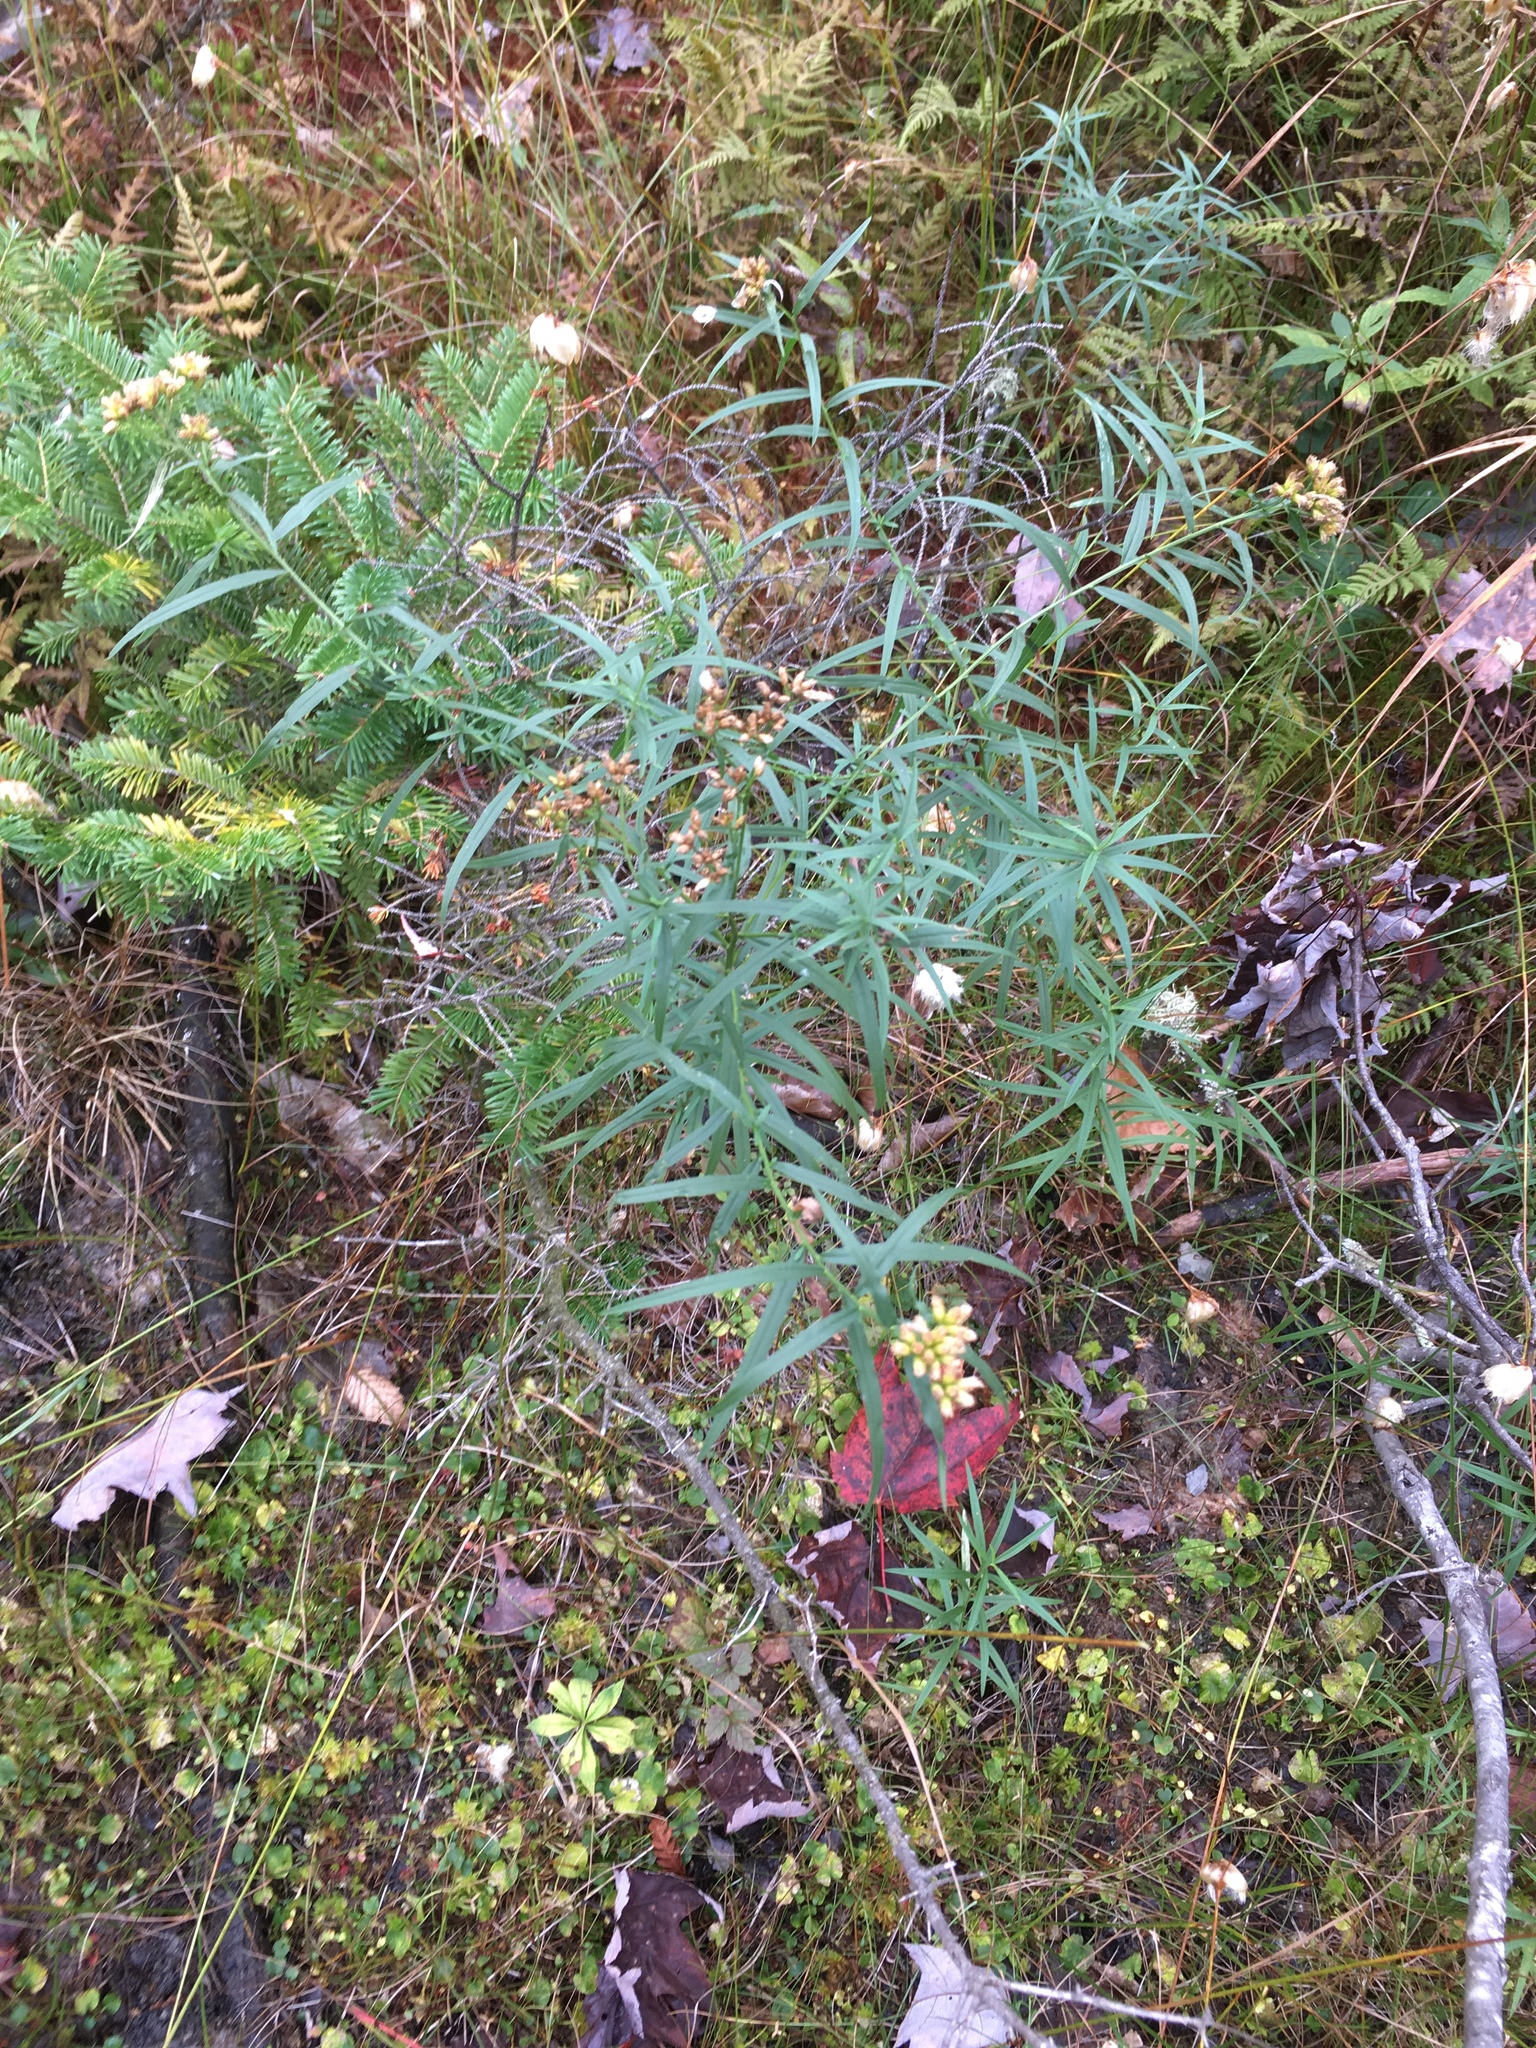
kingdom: Plantae
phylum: Tracheophyta
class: Magnoliopsida
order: Asterales
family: Asteraceae
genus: Euthamia
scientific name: Euthamia graminifolia
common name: Common goldentop
